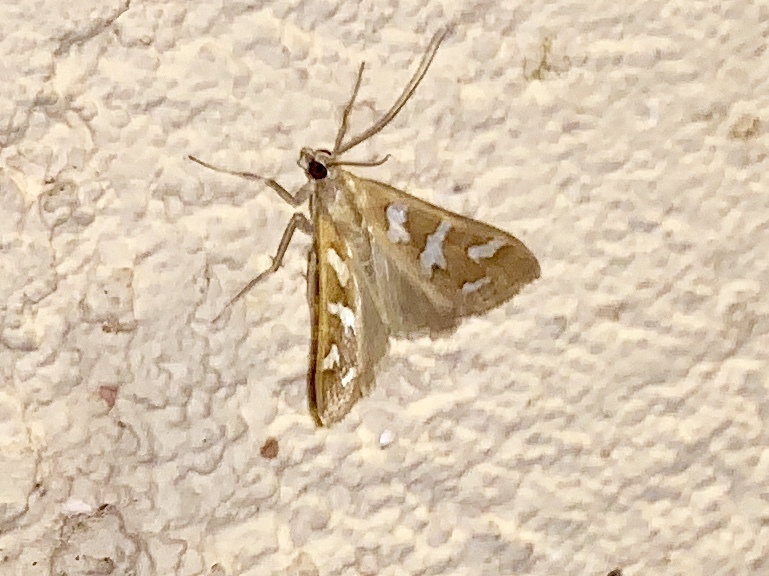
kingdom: Animalia
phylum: Arthropoda
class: Insecta
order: Lepidoptera
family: Crambidae
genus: Diastictis
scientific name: Diastictis fracturalis
